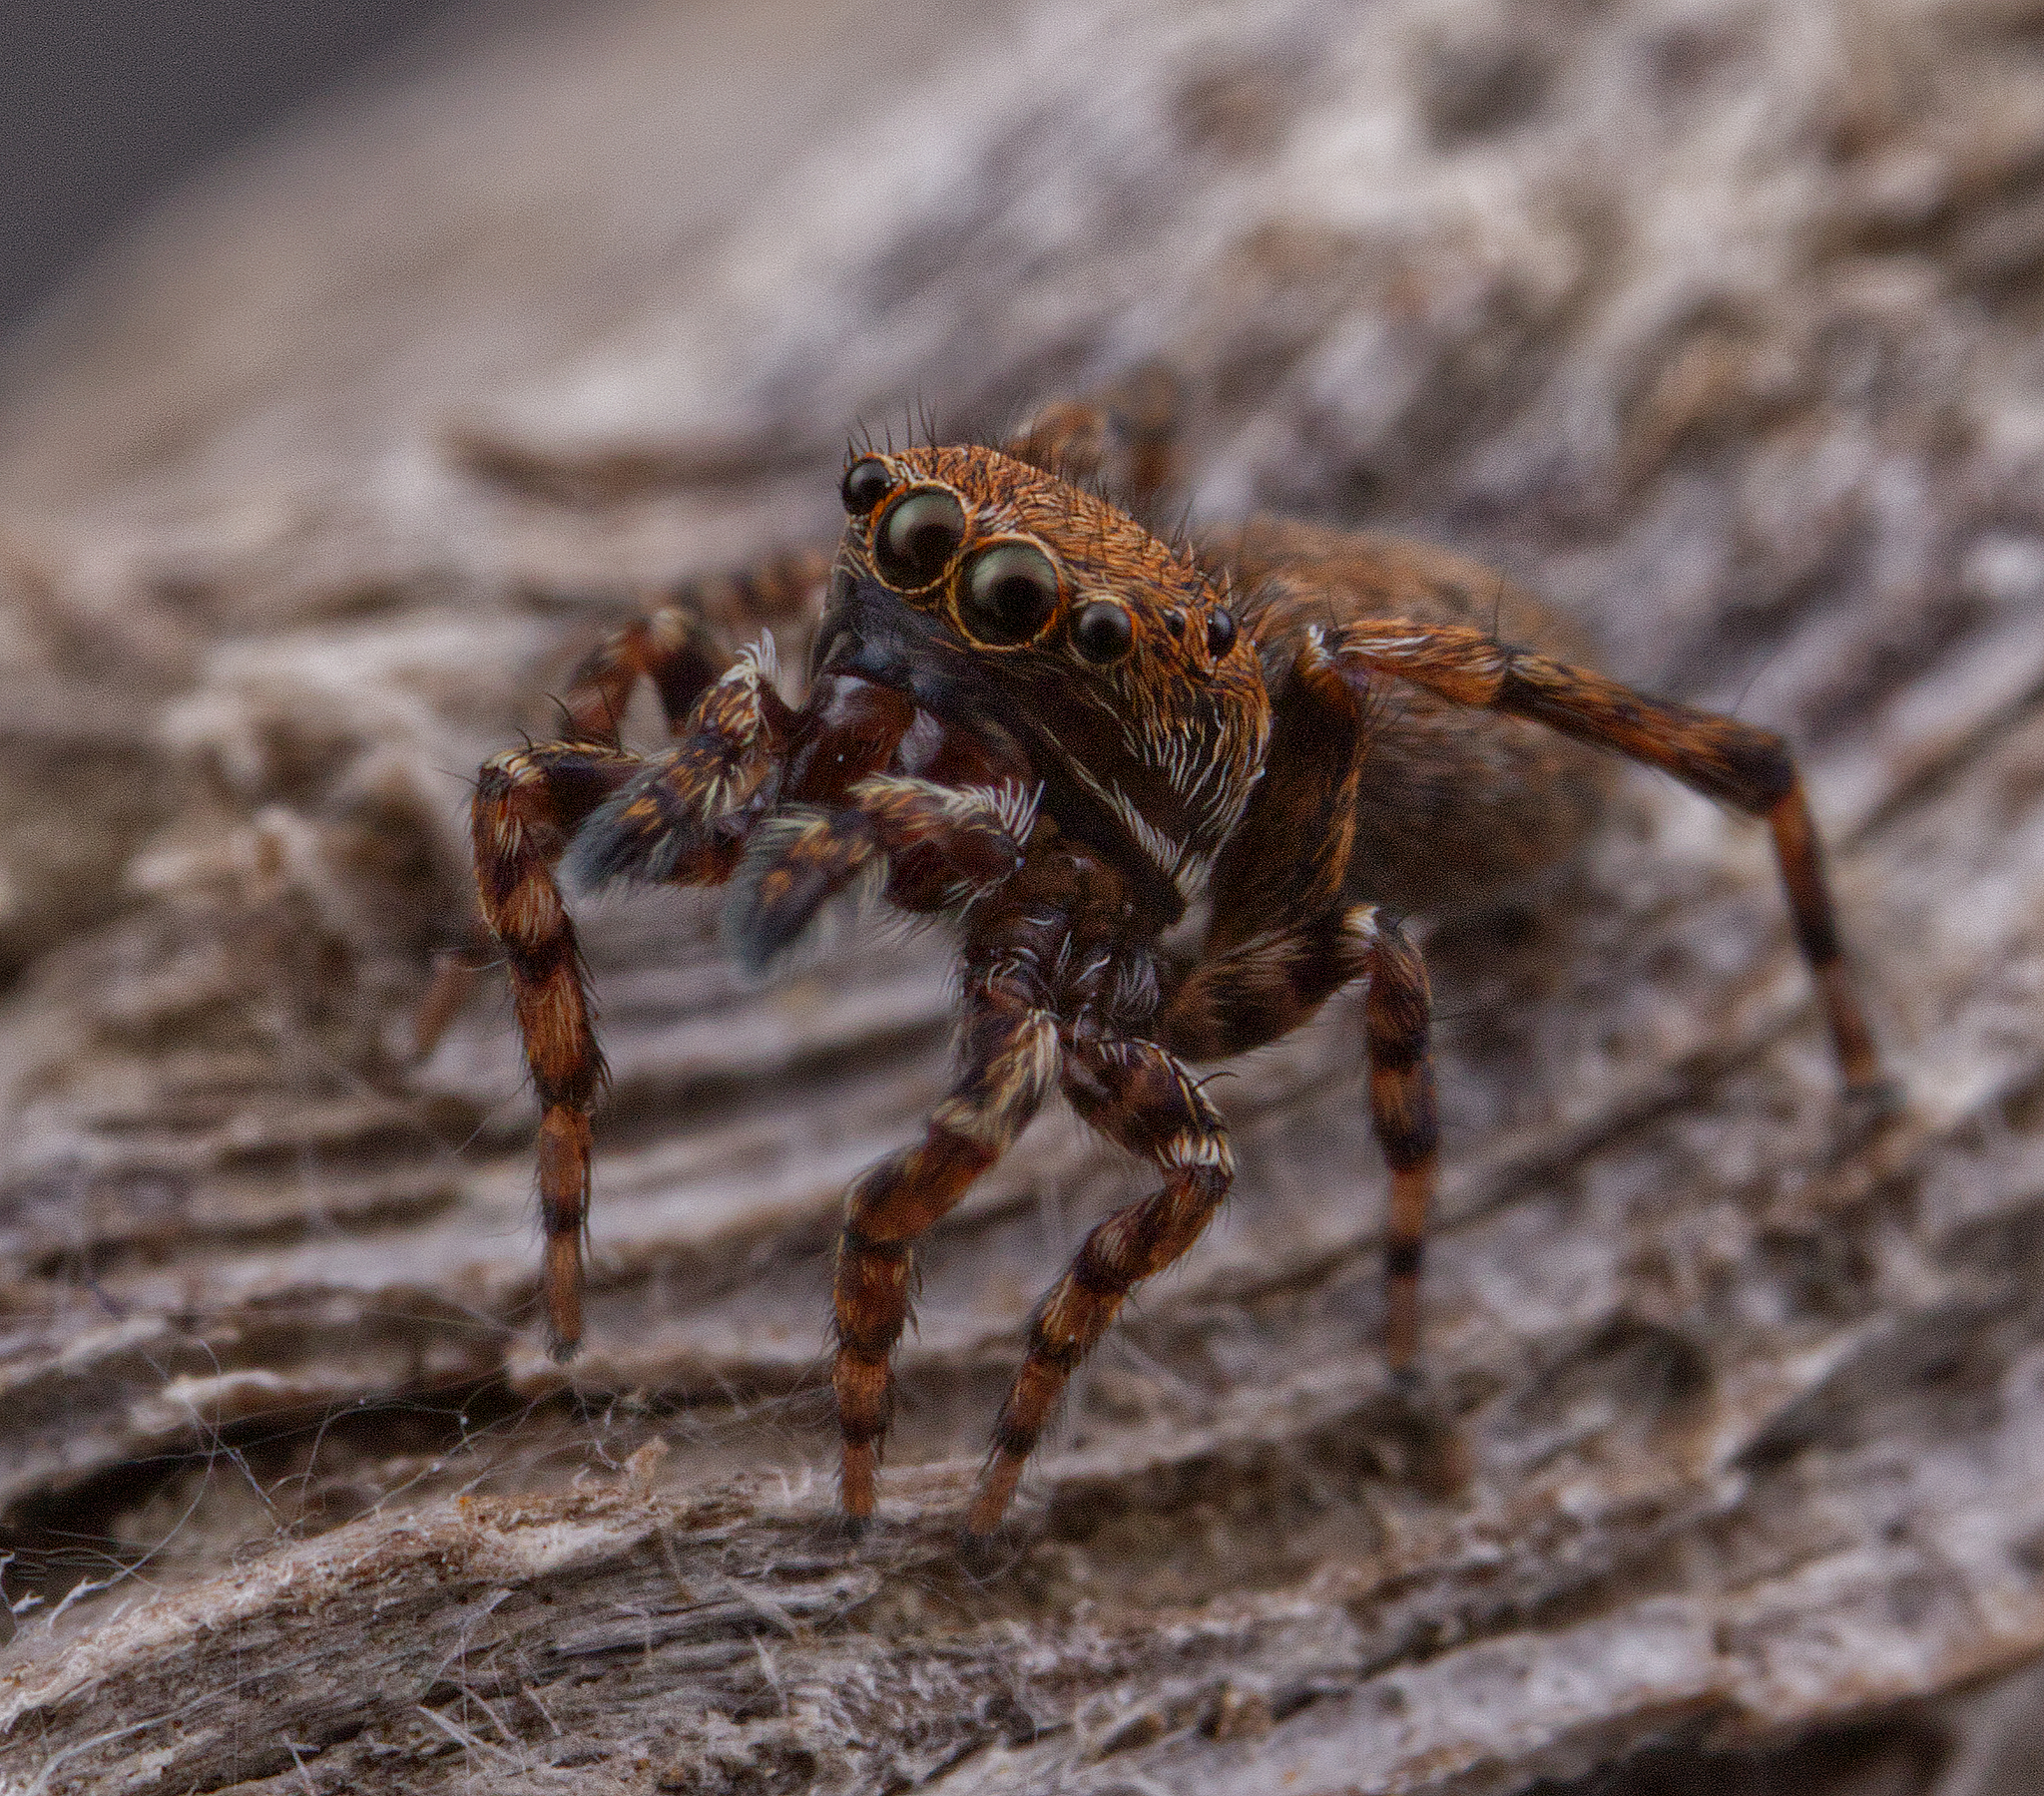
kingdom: Animalia
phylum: Arthropoda
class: Arachnida
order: Araneae
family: Salticidae
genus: Attinella
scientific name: Attinella concolor
